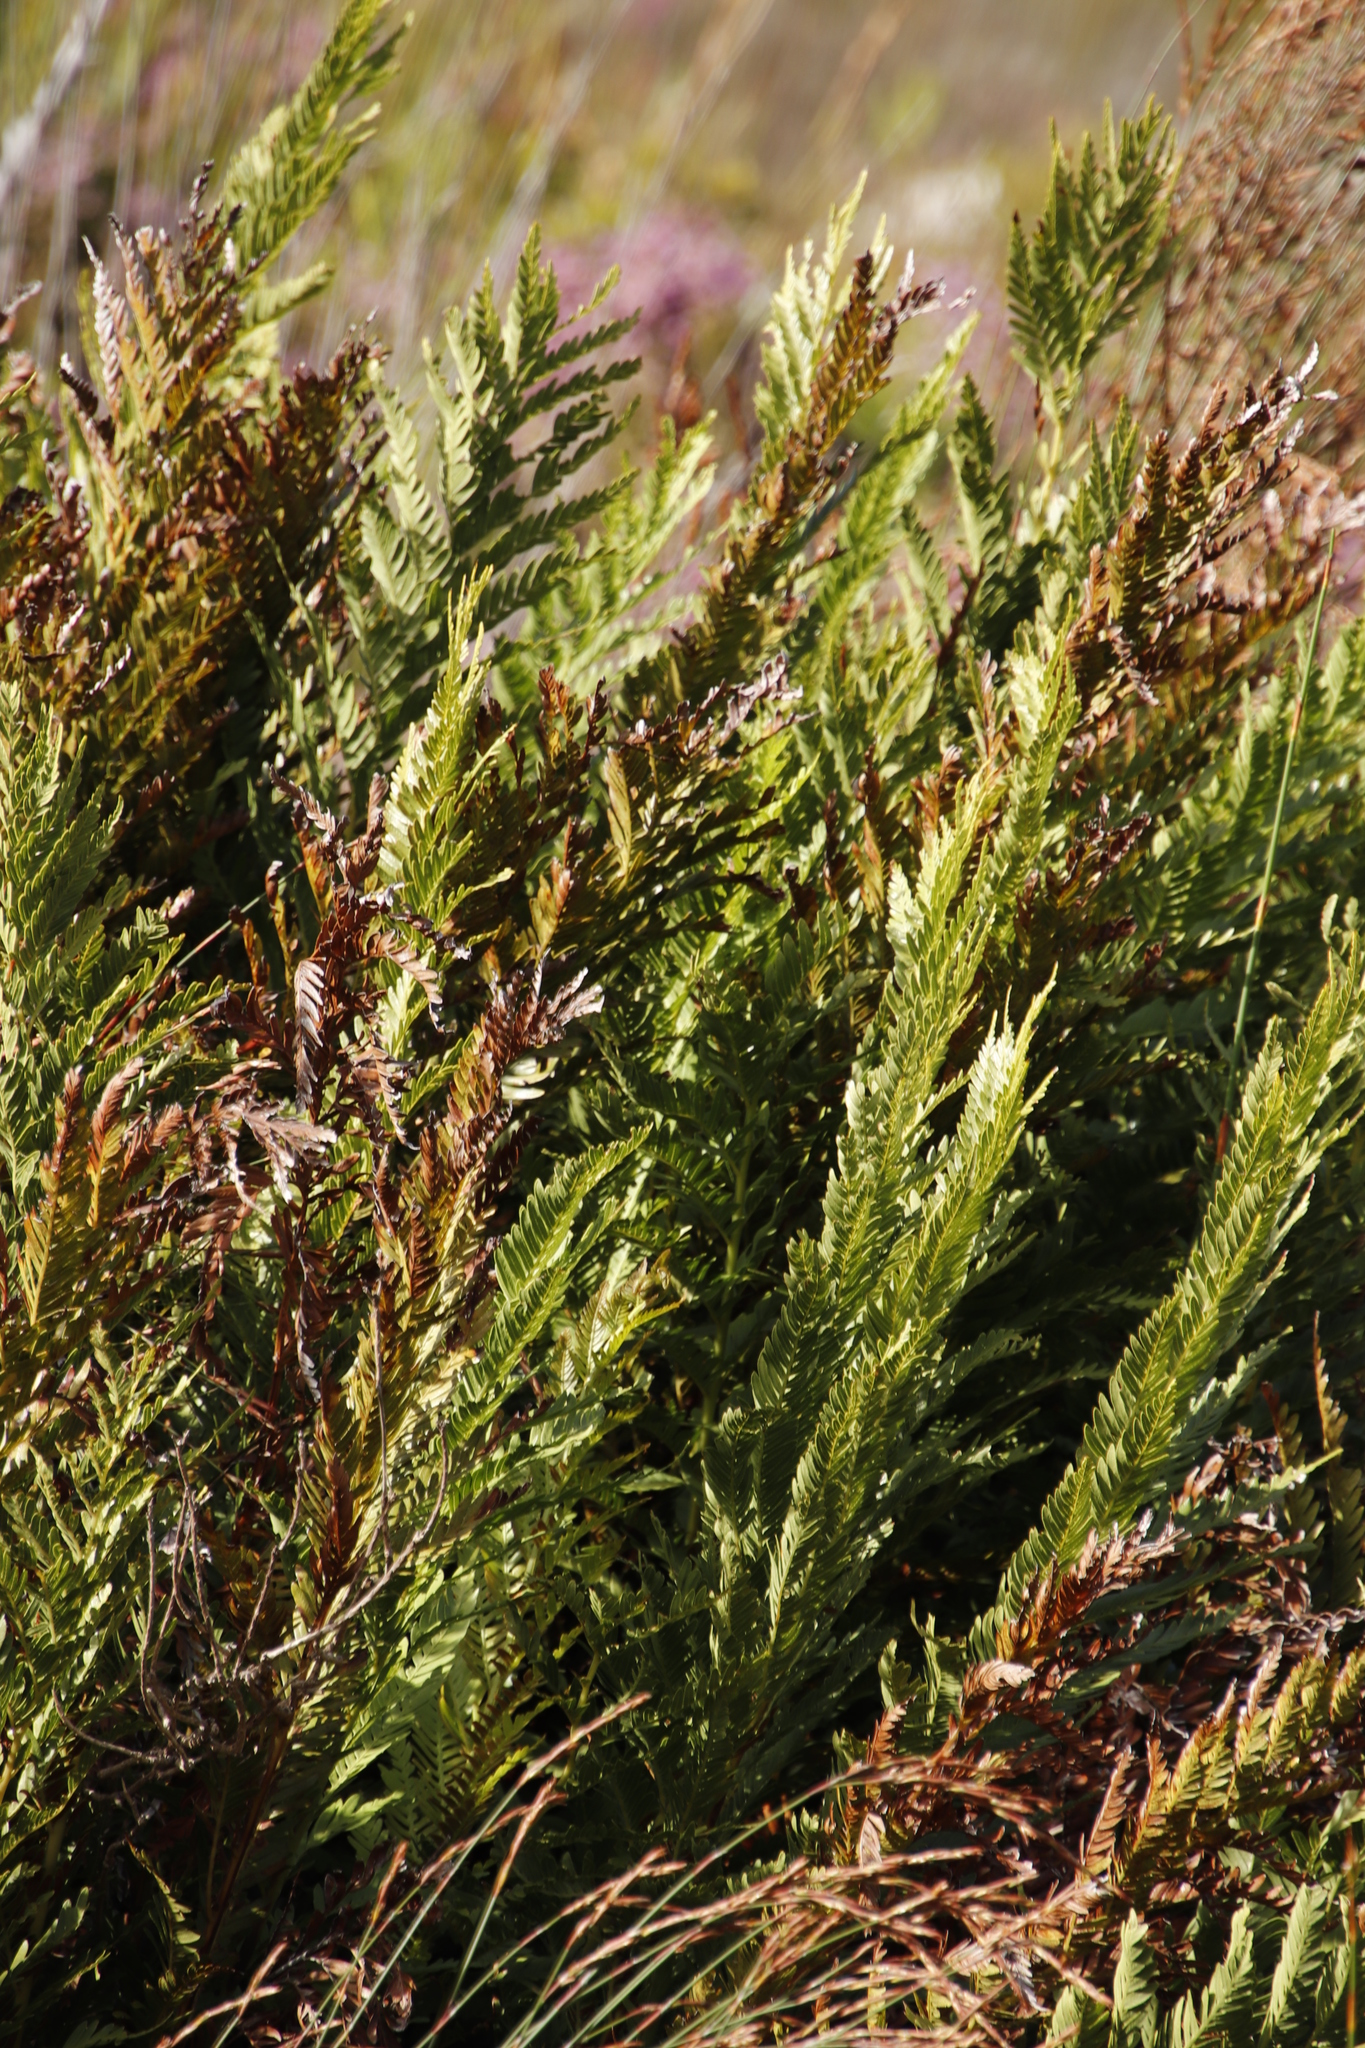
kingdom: Plantae
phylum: Tracheophyta
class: Polypodiopsida
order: Osmundales
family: Osmundaceae
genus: Todea
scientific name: Todea barbara
